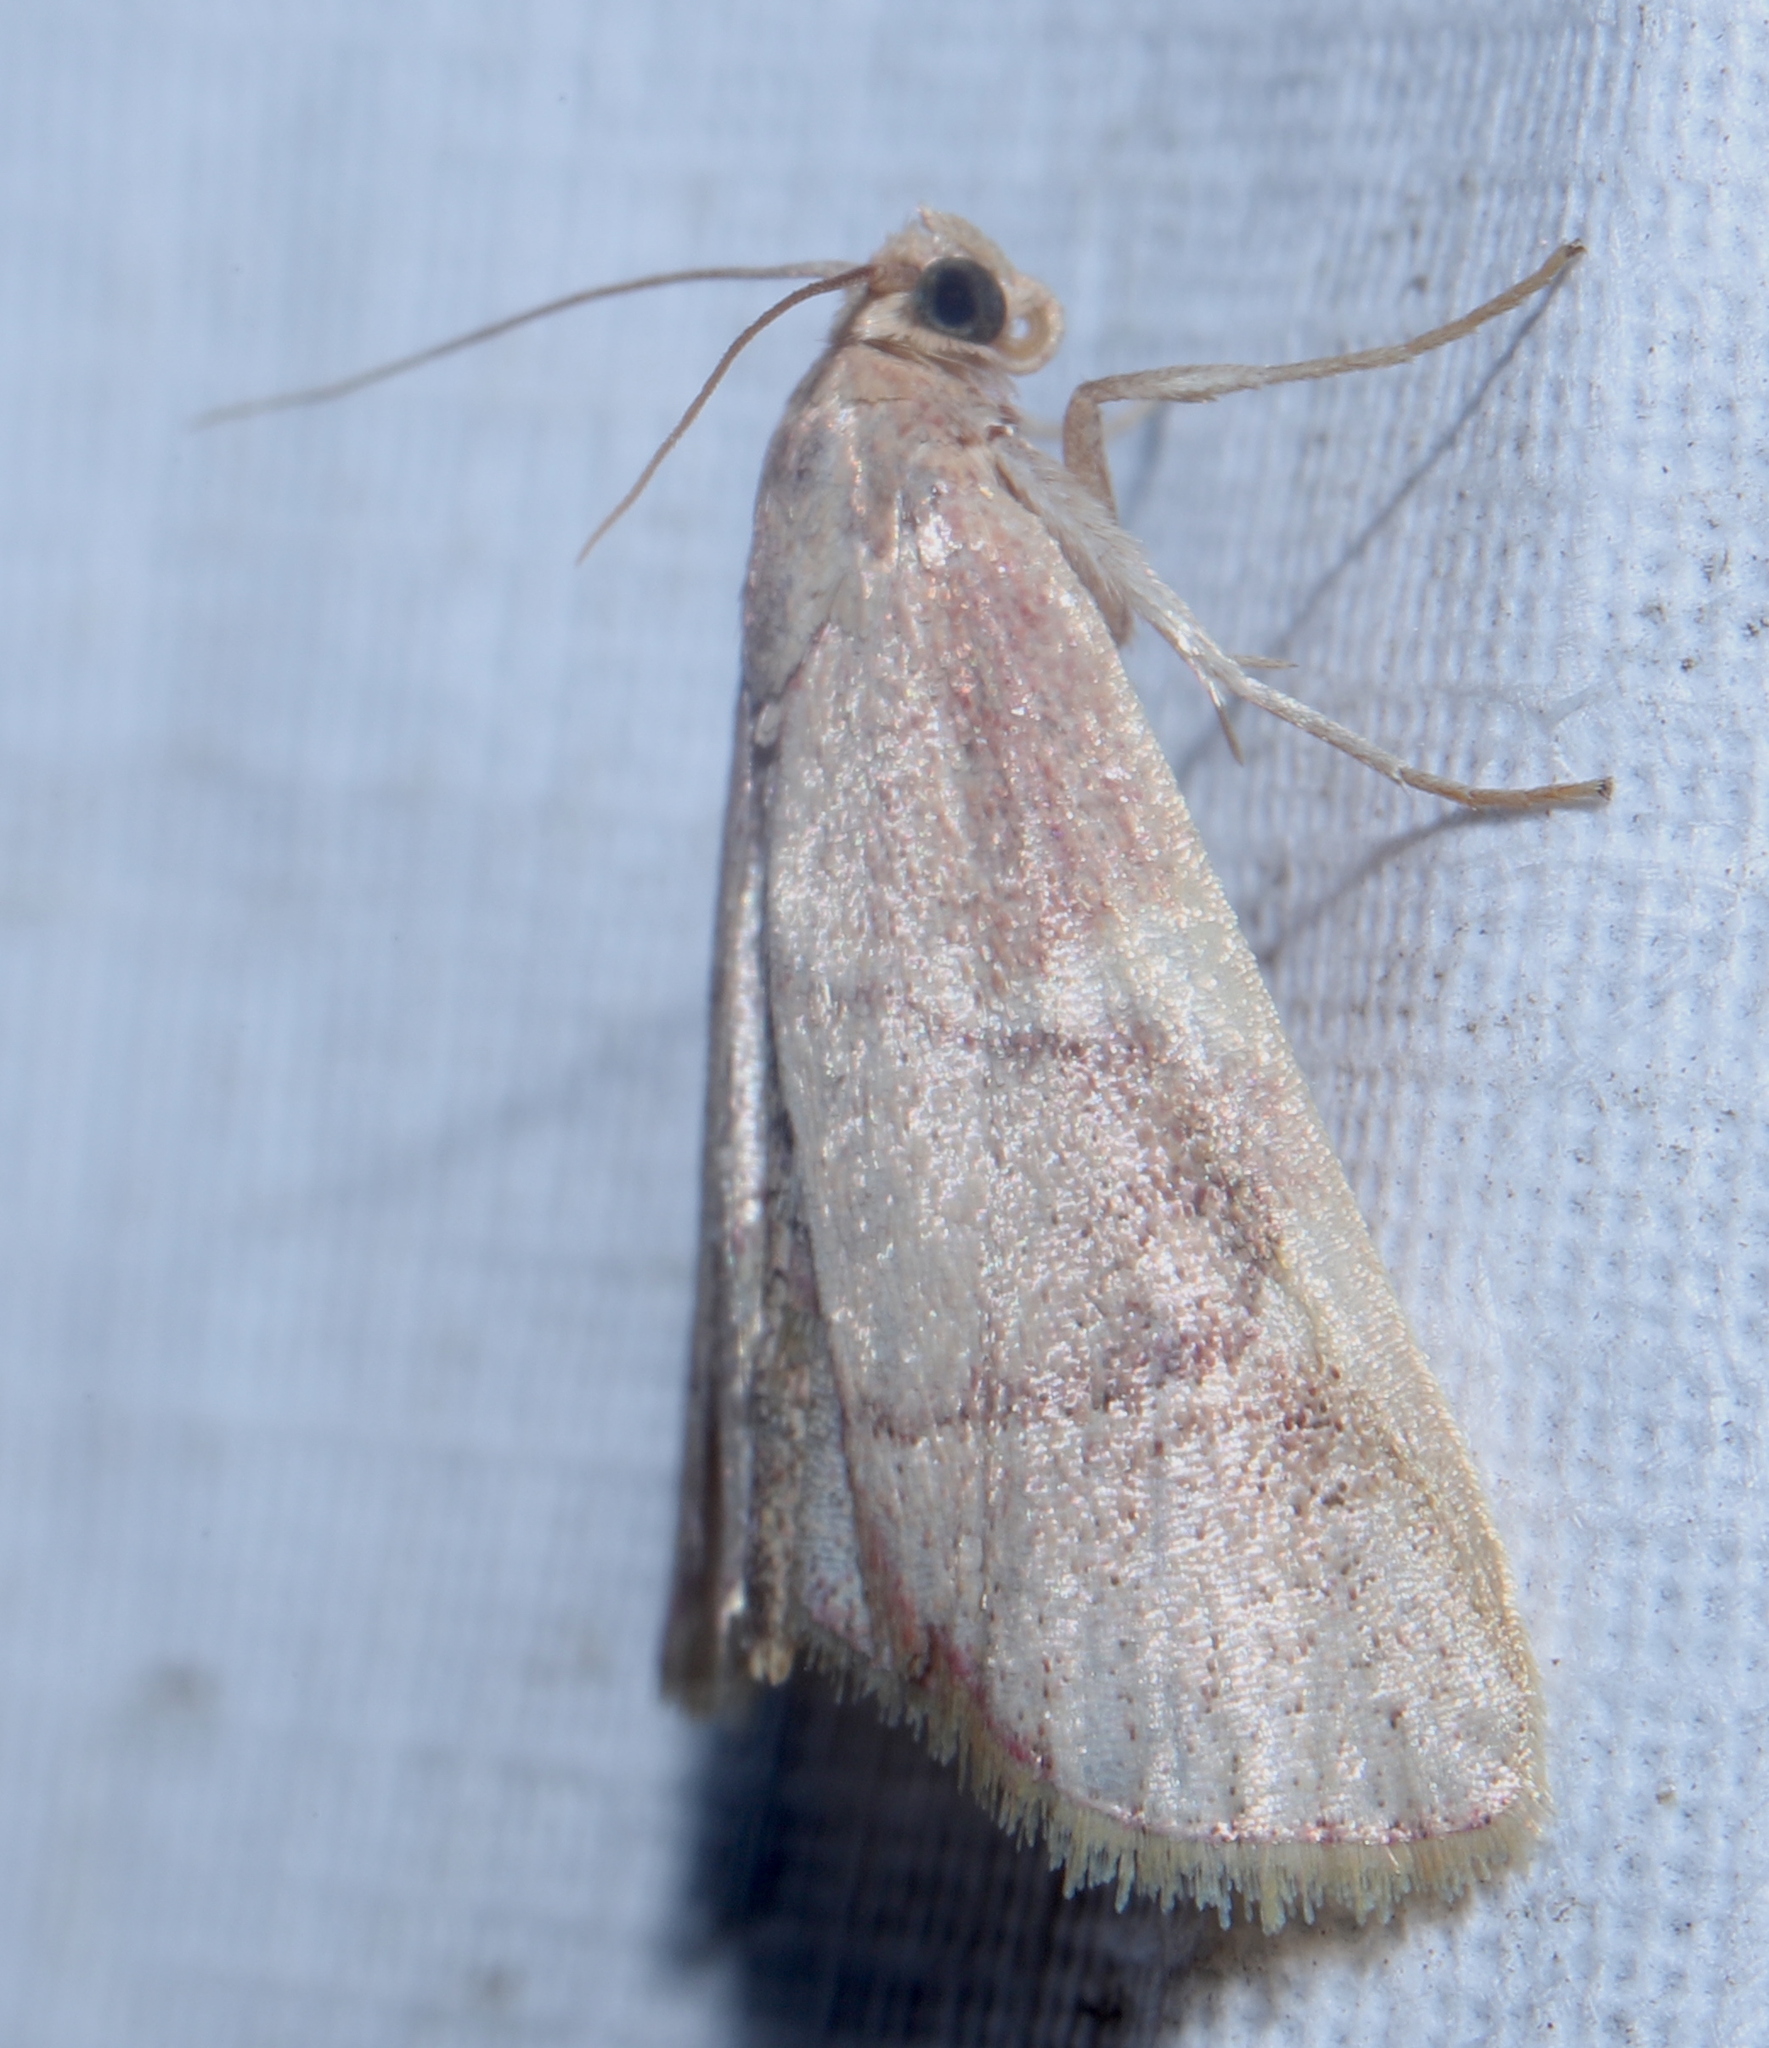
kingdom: Animalia
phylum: Arthropoda
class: Insecta
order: Lepidoptera
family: Pyralidae
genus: Hypsopygia
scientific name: Hypsopygia olinalis
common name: Yellow-fringed dolichomia moth
